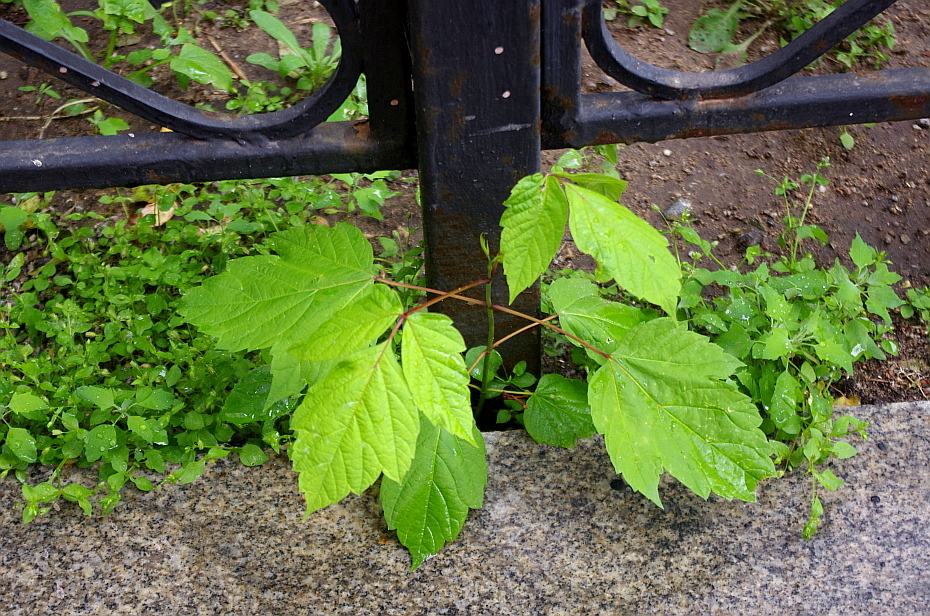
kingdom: Plantae
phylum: Tracheophyta
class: Magnoliopsida
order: Sapindales
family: Sapindaceae
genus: Acer
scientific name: Acer negundo
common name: Ashleaf maple
